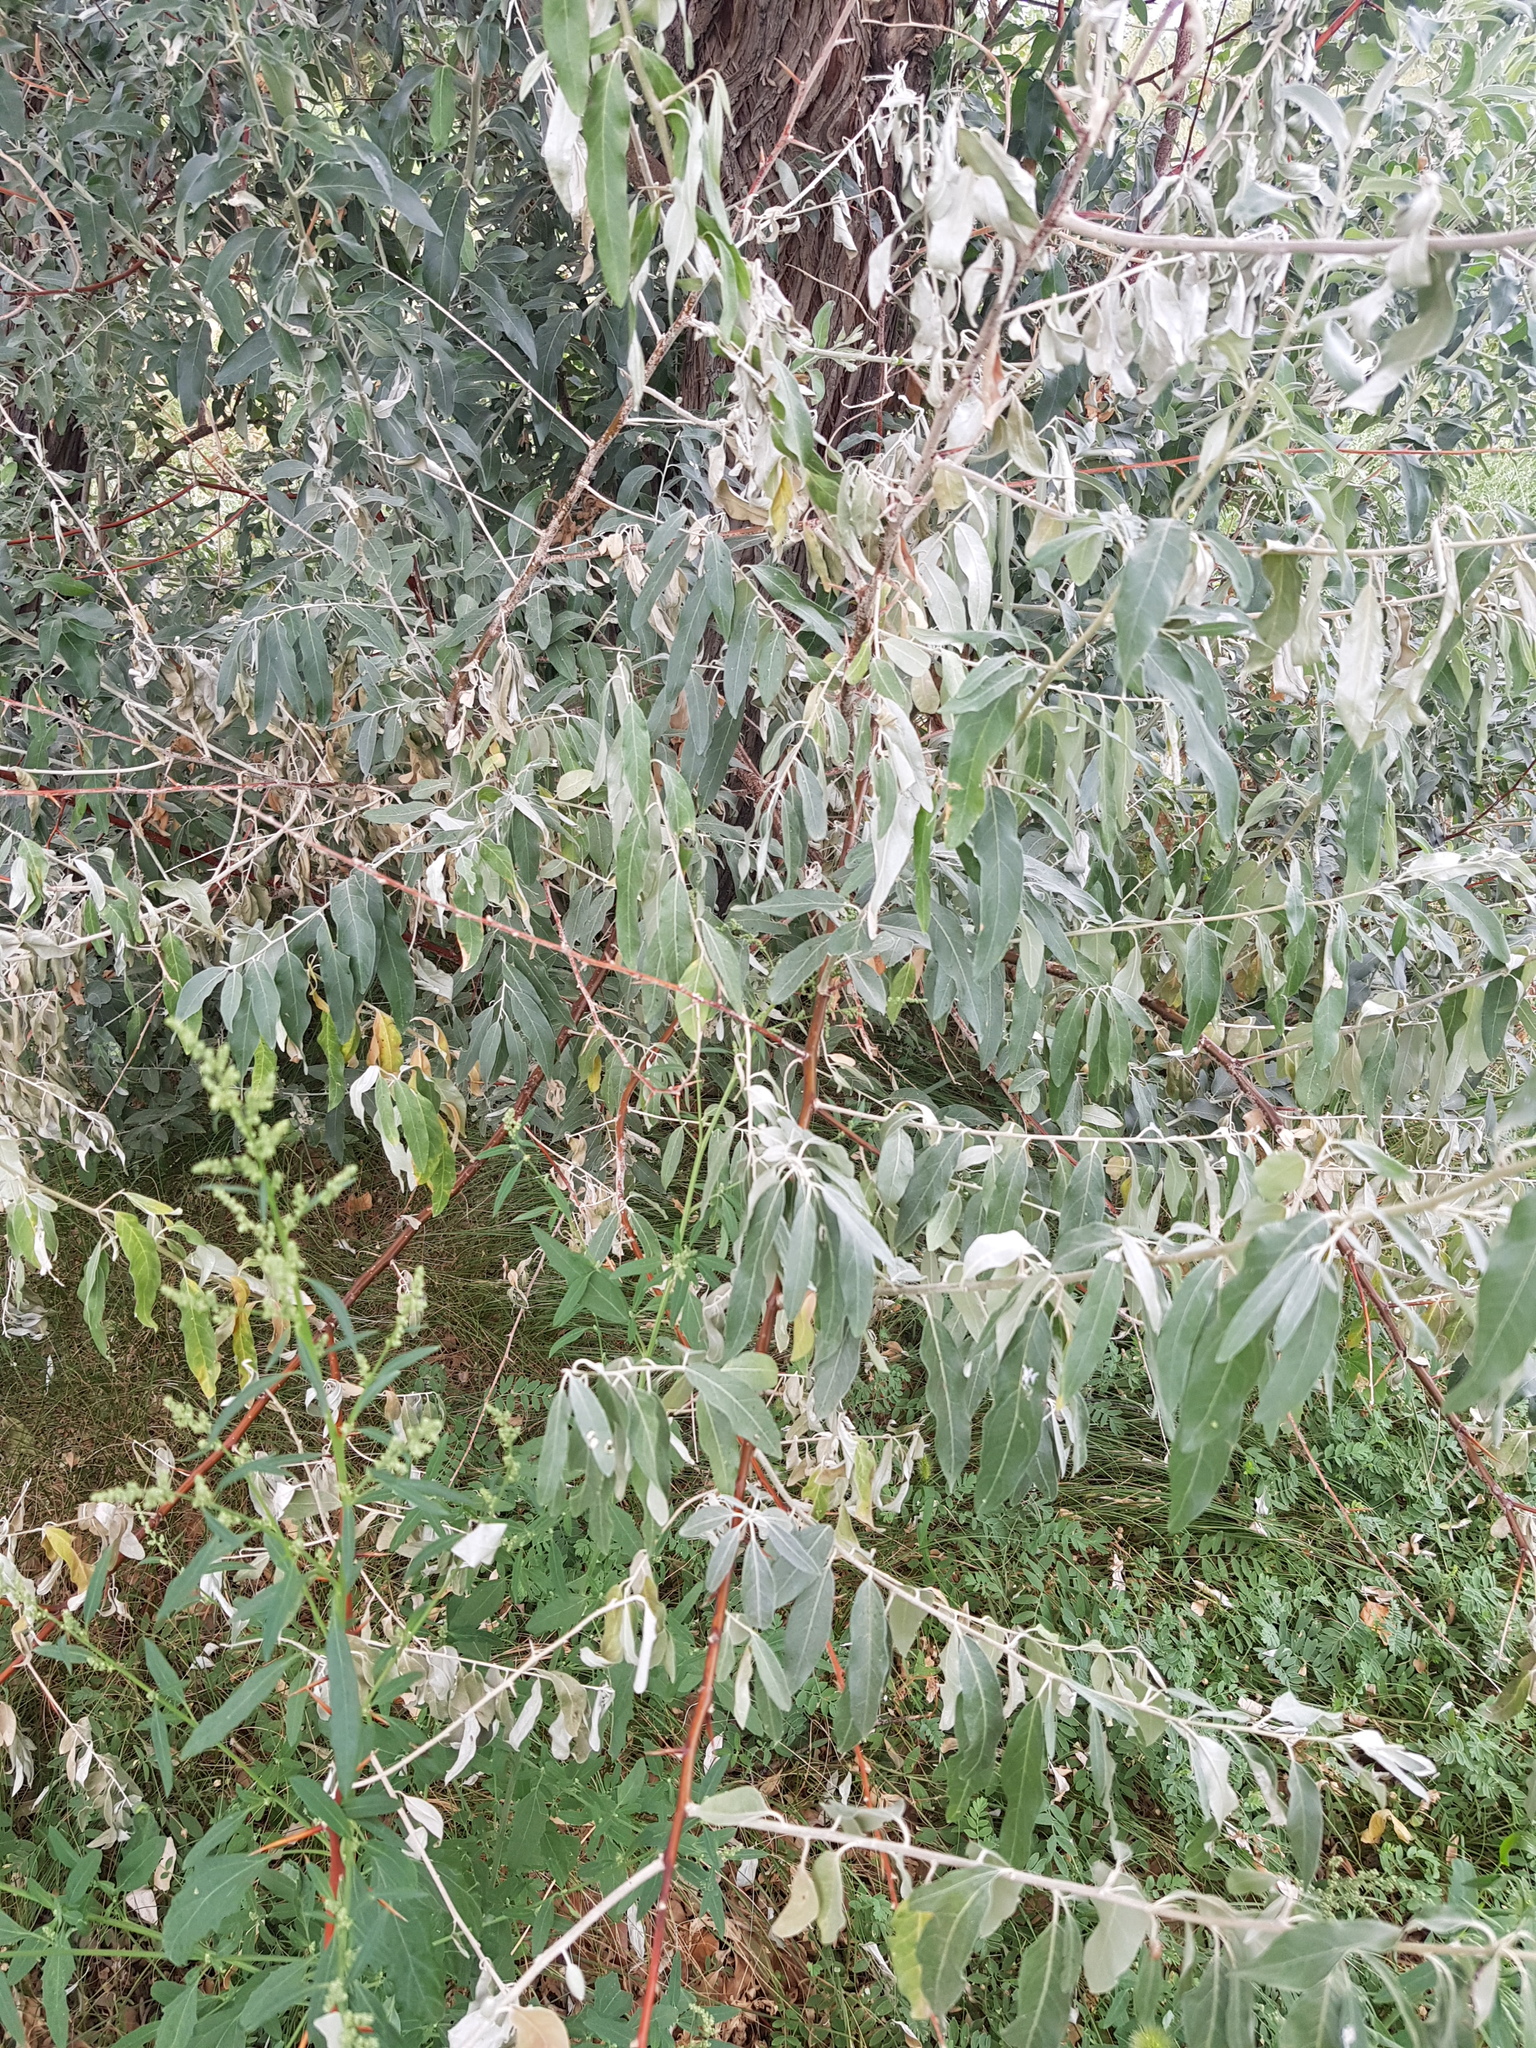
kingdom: Plantae
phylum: Tracheophyta
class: Magnoliopsida
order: Malpighiales
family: Salicaceae
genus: Populus
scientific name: Populus euphratica
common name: Euphrates poplar
